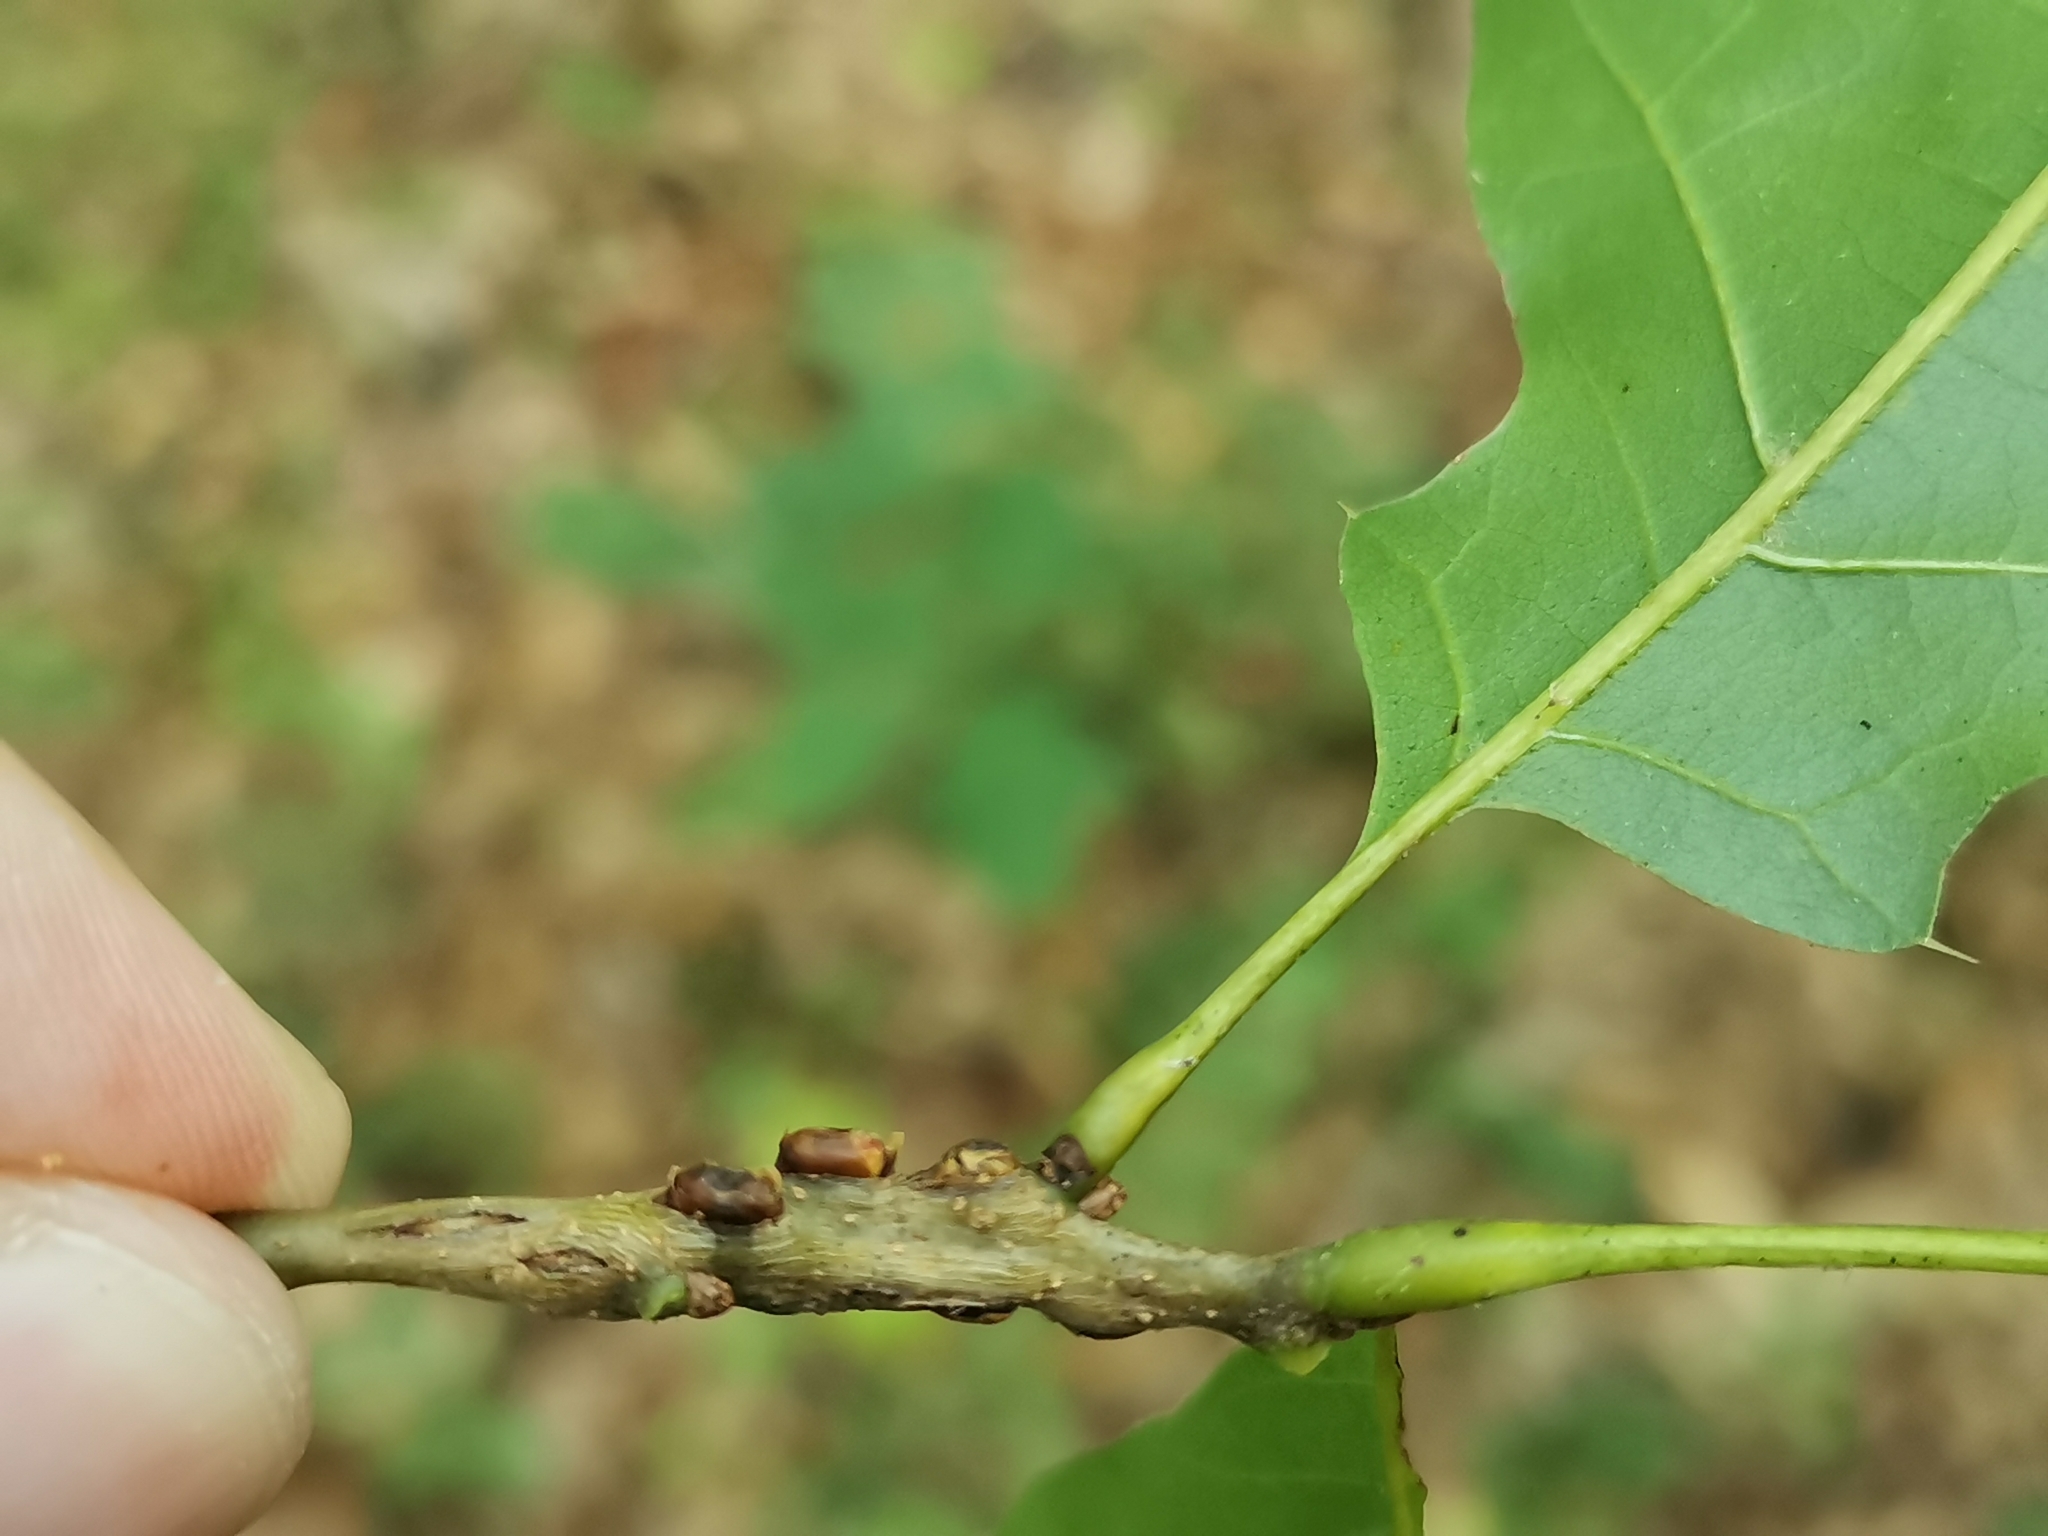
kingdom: Animalia
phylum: Arthropoda
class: Insecta
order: Hymenoptera
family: Cynipidae
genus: Callirhytis
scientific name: Callirhytis
